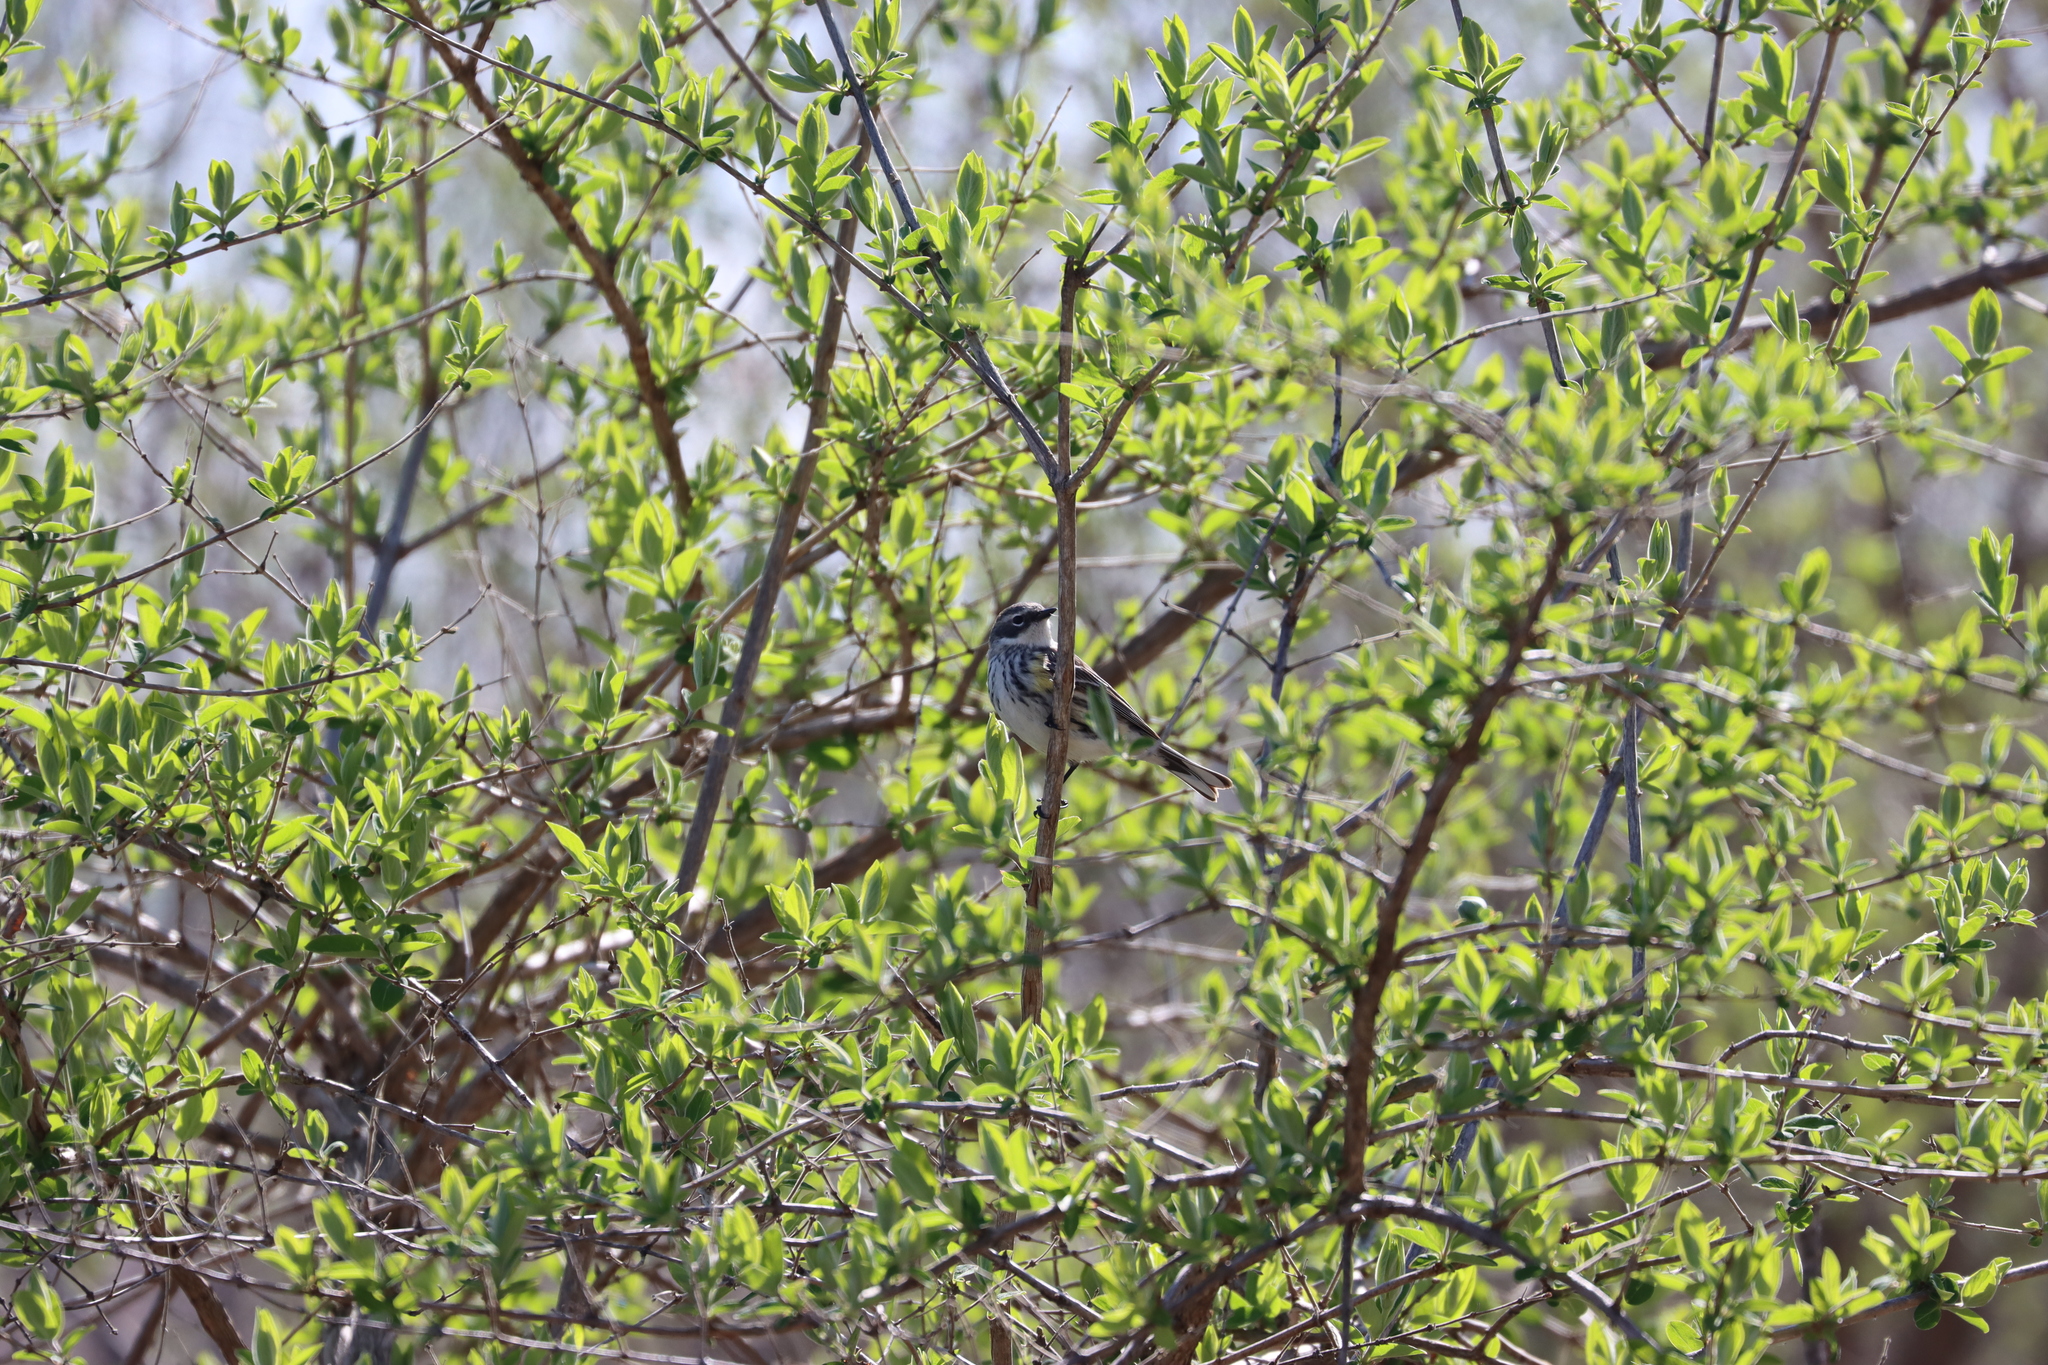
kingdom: Animalia
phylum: Chordata
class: Aves
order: Passeriformes
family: Parulidae
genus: Setophaga
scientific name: Setophaga coronata
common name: Myrtle warbler
